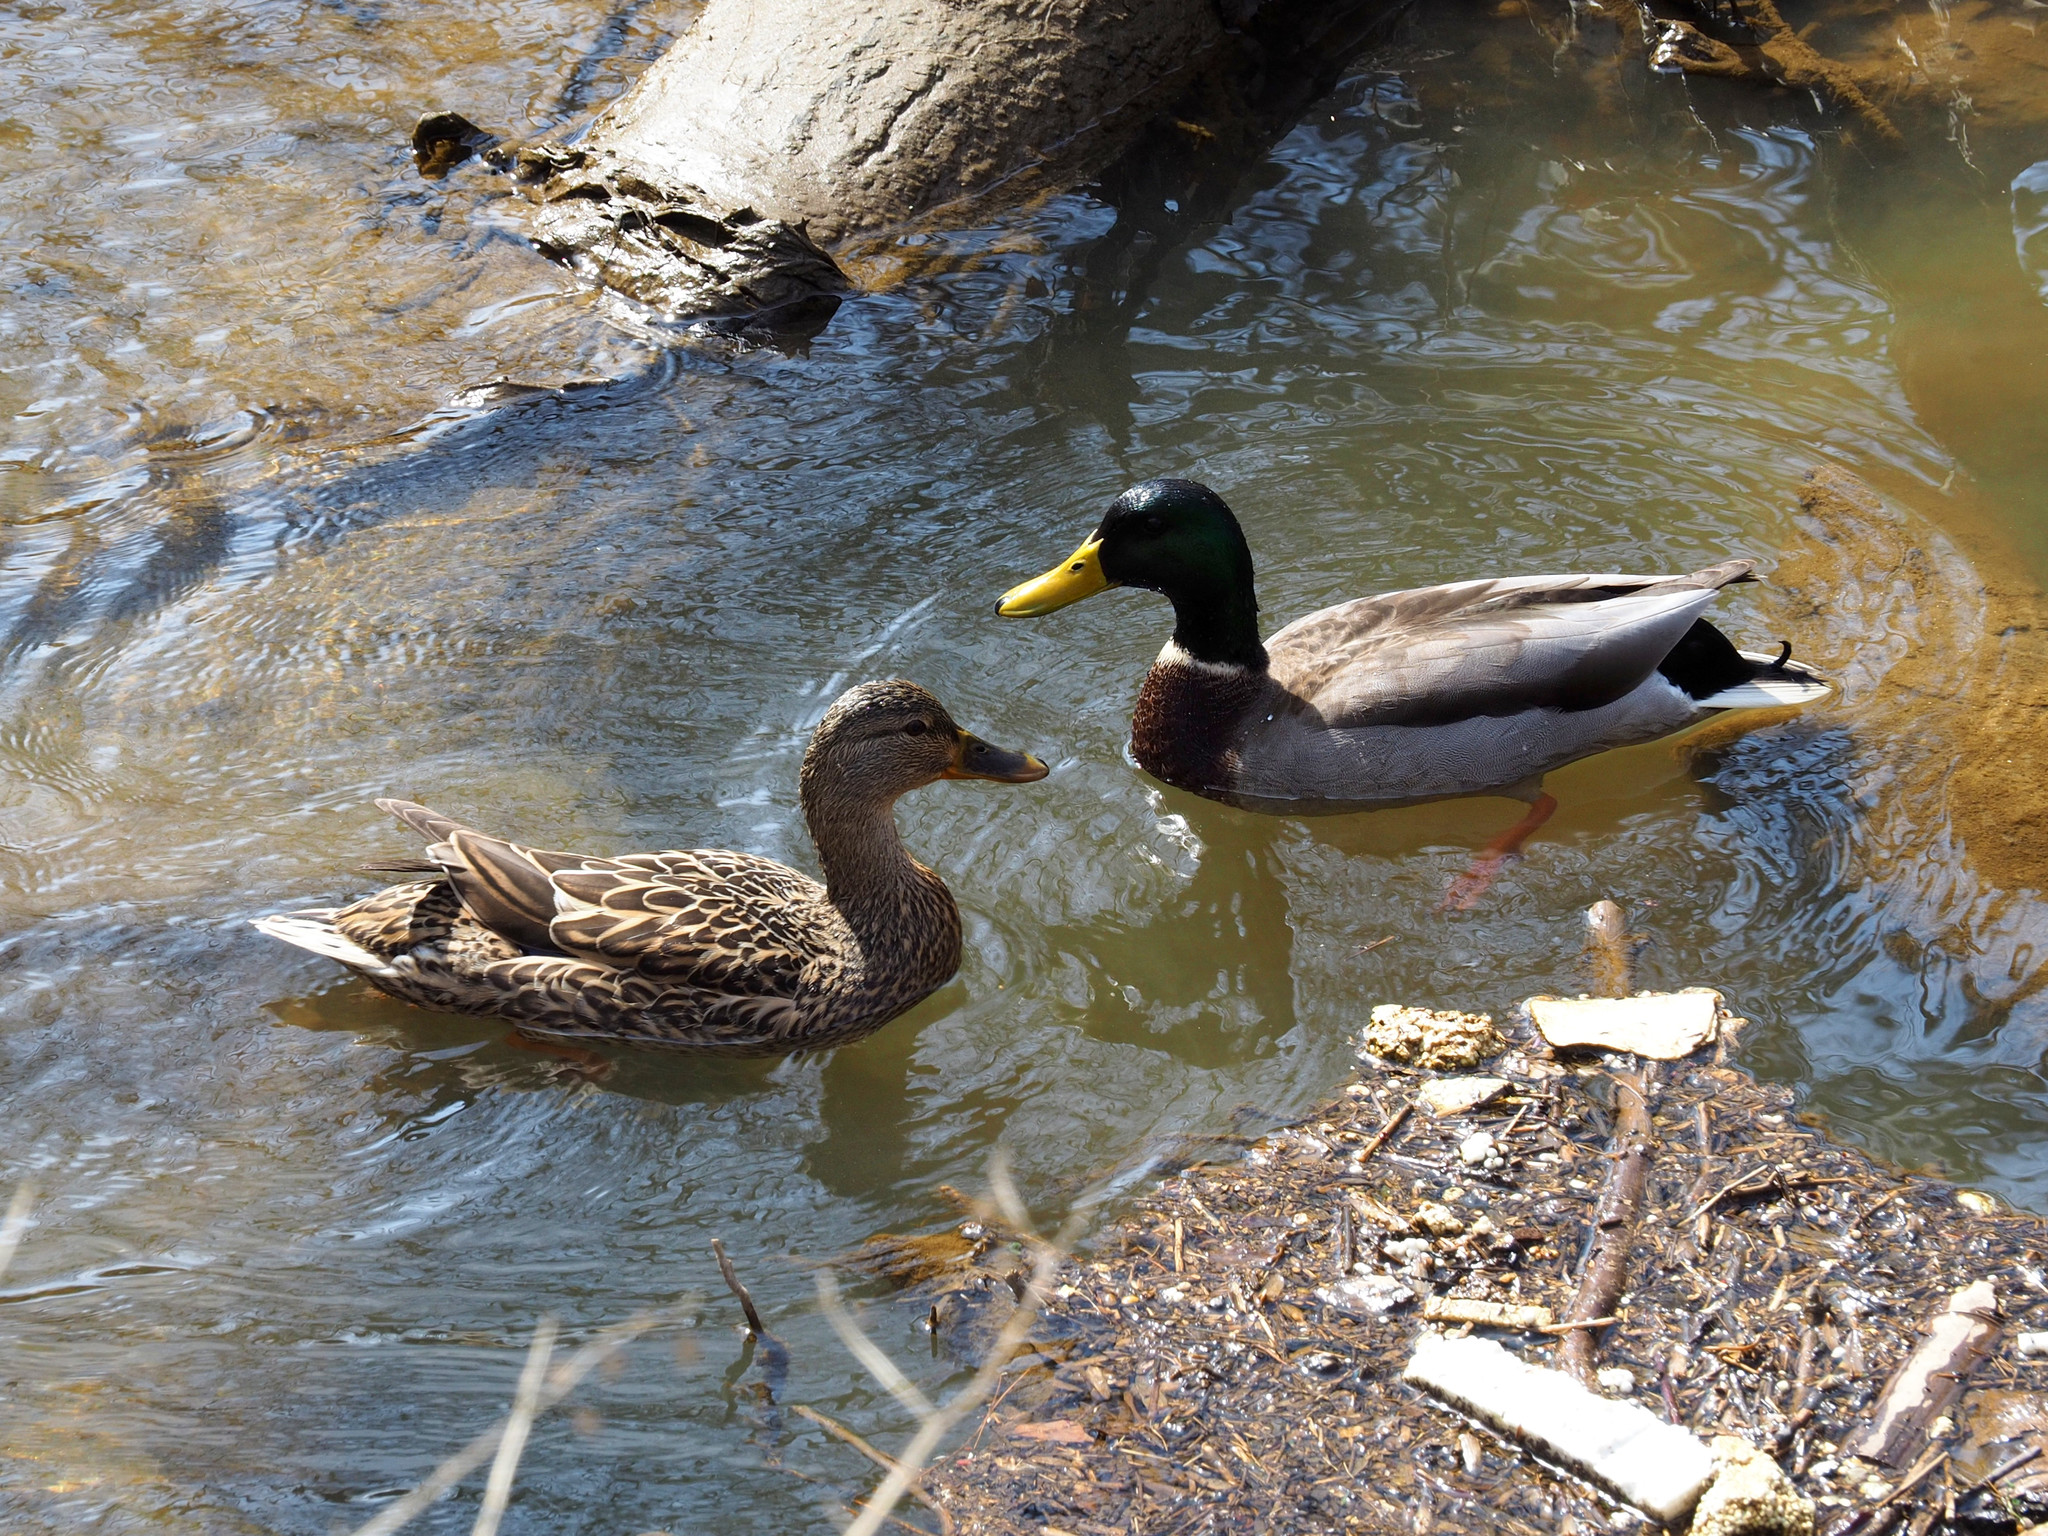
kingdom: Animalia
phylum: Chordata
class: Aves
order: Anseriformes
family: Anatidae
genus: Anas
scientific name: Anas platyrhynchos
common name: Mallard
